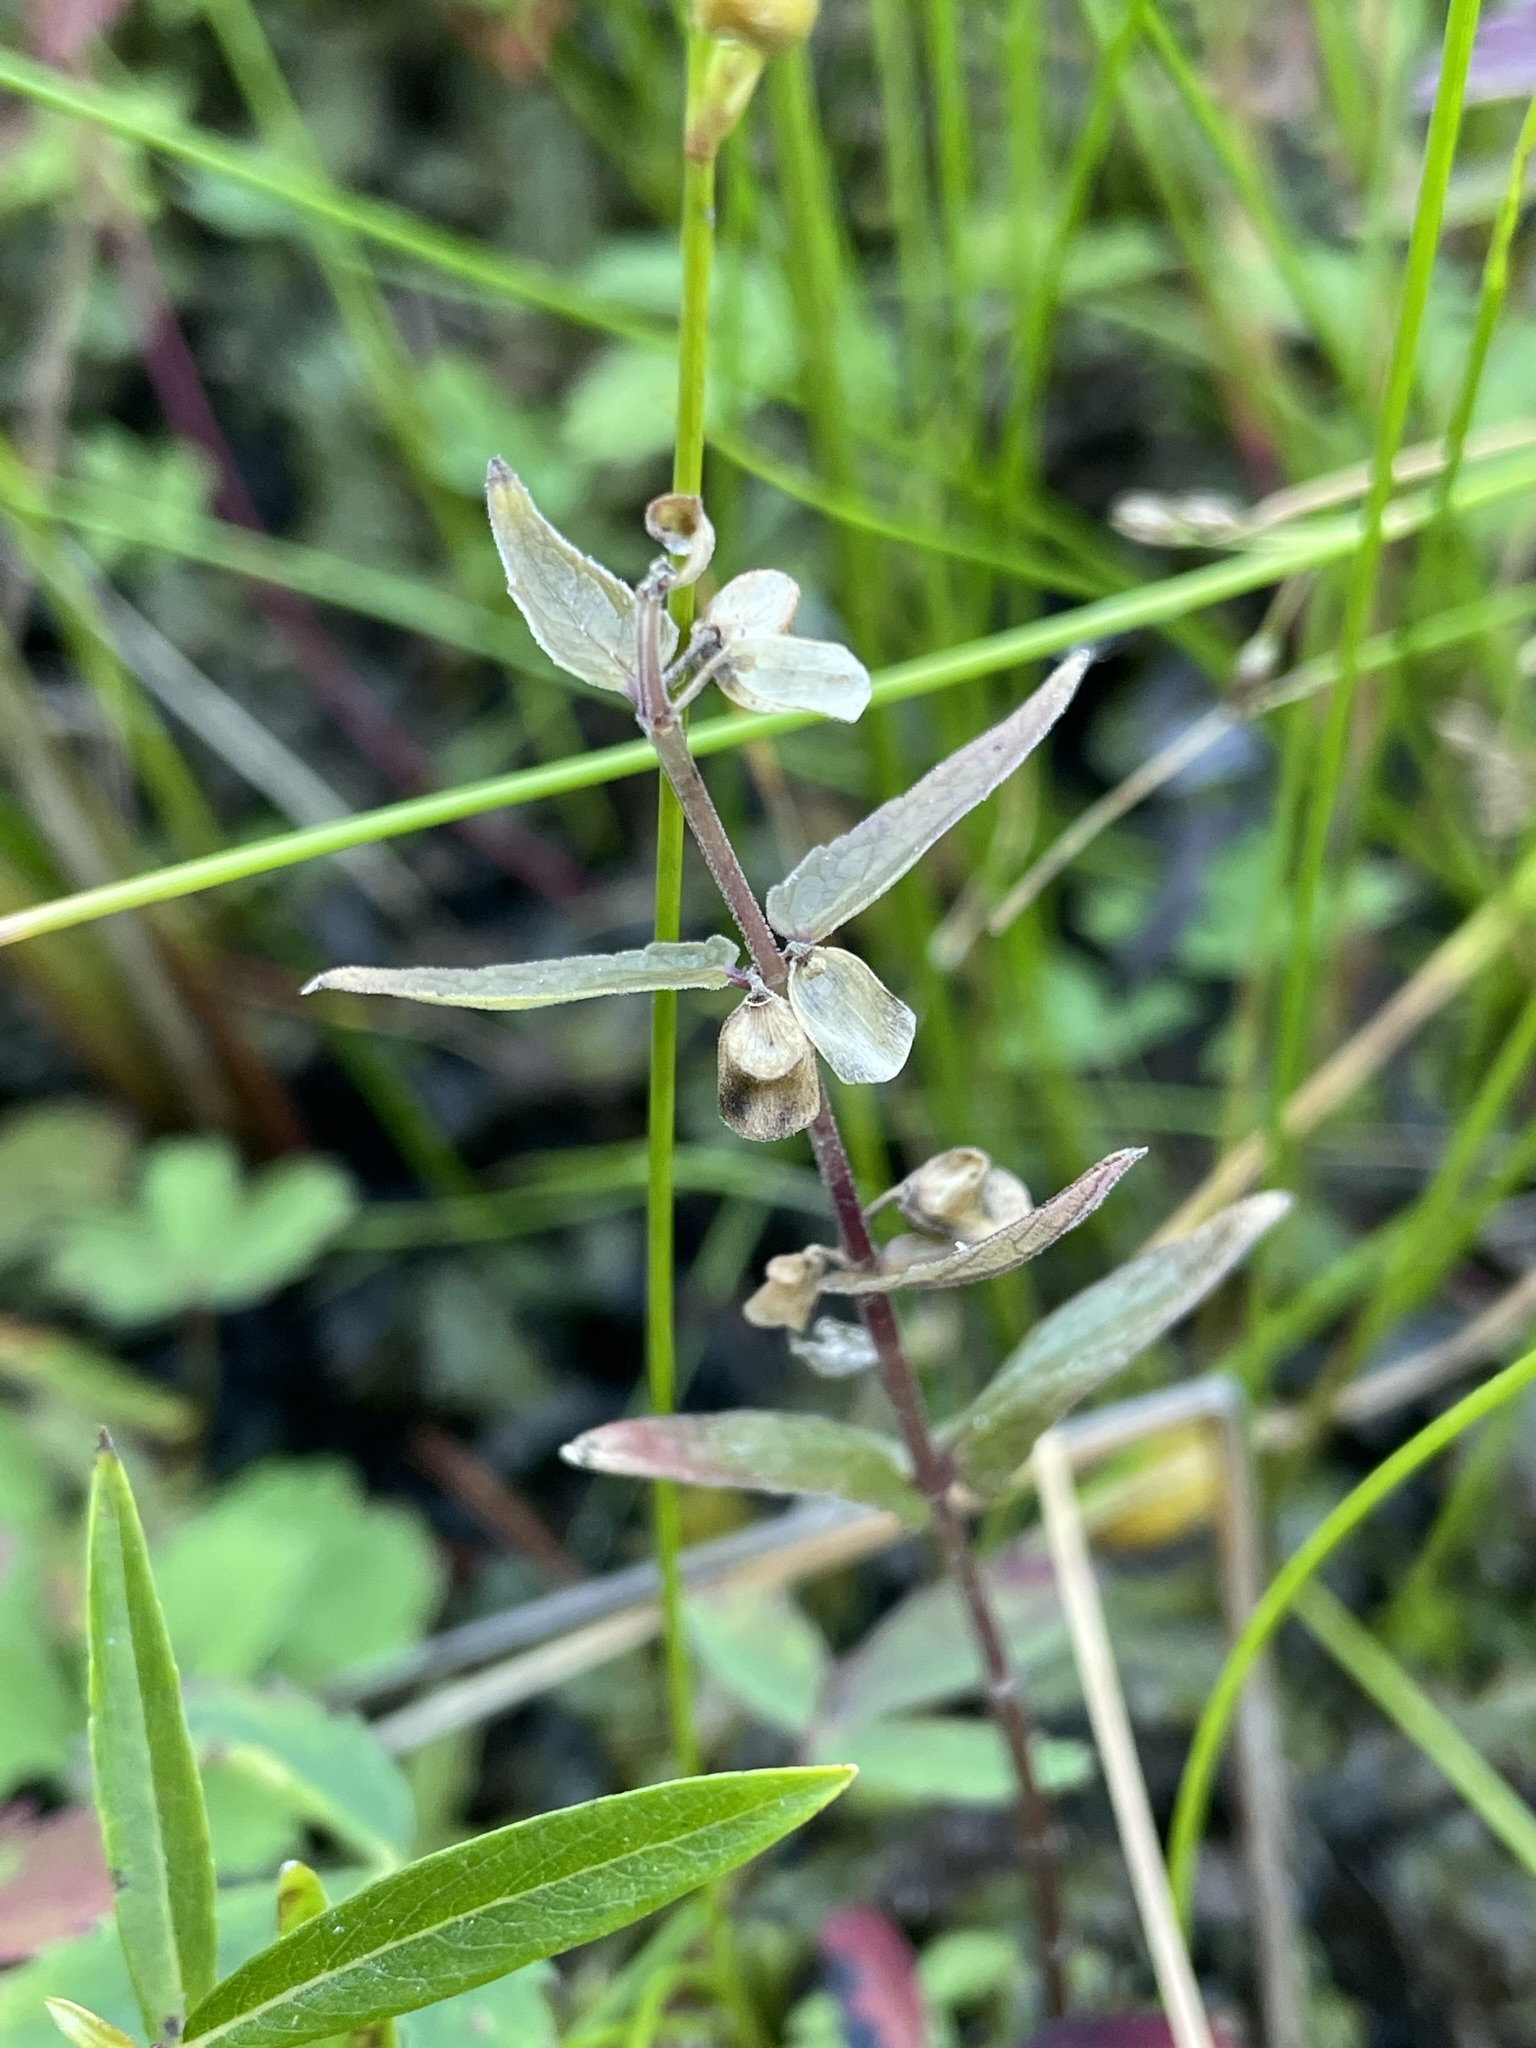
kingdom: Plantae
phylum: Tracheophyta
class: Magnoliopsida
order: Lamiales
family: Lamiaceae
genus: Scutellaria
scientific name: Scutellaria galericulata
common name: Skullcap
